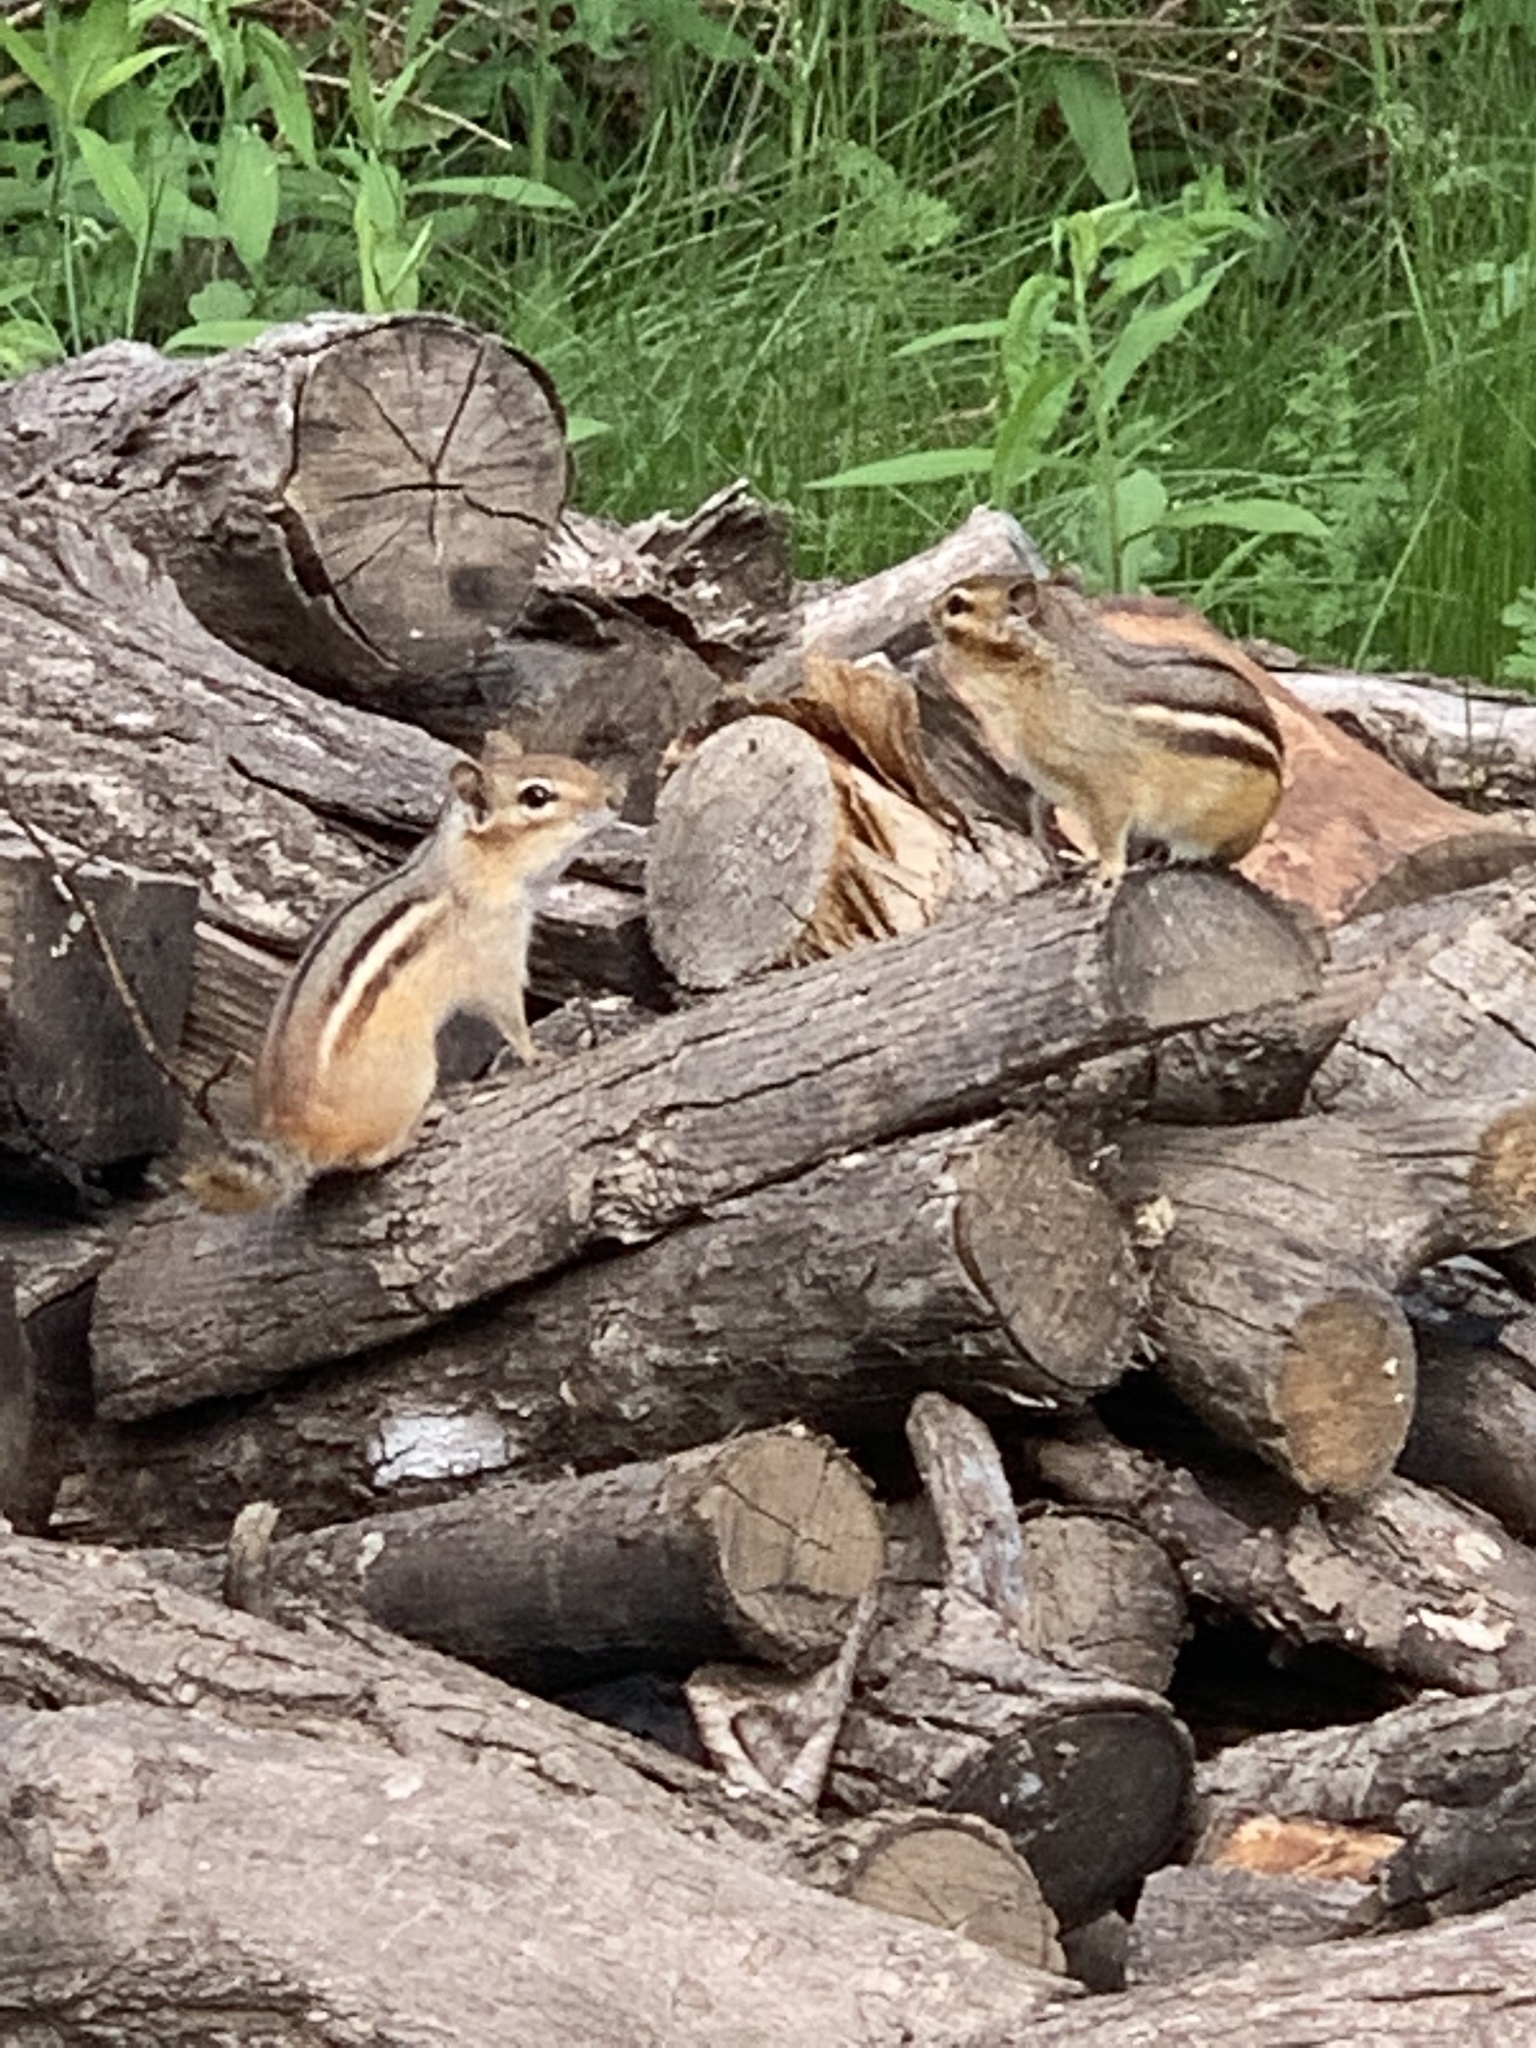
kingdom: Animalia
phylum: Chordata
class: Mammalia
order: Rodentia
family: Sciuridae
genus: Tamias
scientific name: Tamias striatus
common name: Eastern chipmunk
